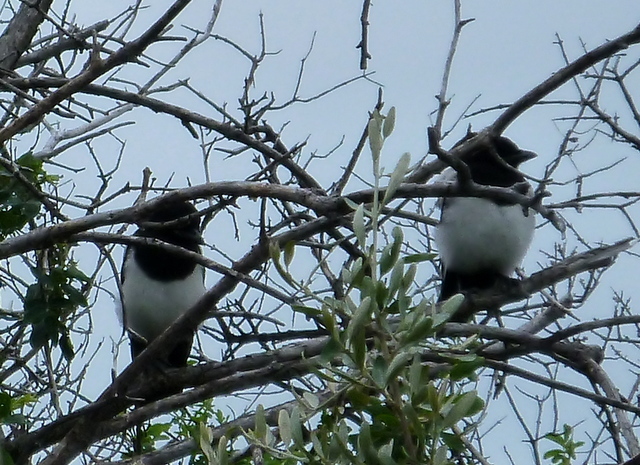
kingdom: Animalia
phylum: Chordata
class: Aves
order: Passeriformes
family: Corvidae
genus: Pica
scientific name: Pica hudsonia
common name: Black-billed magpie
